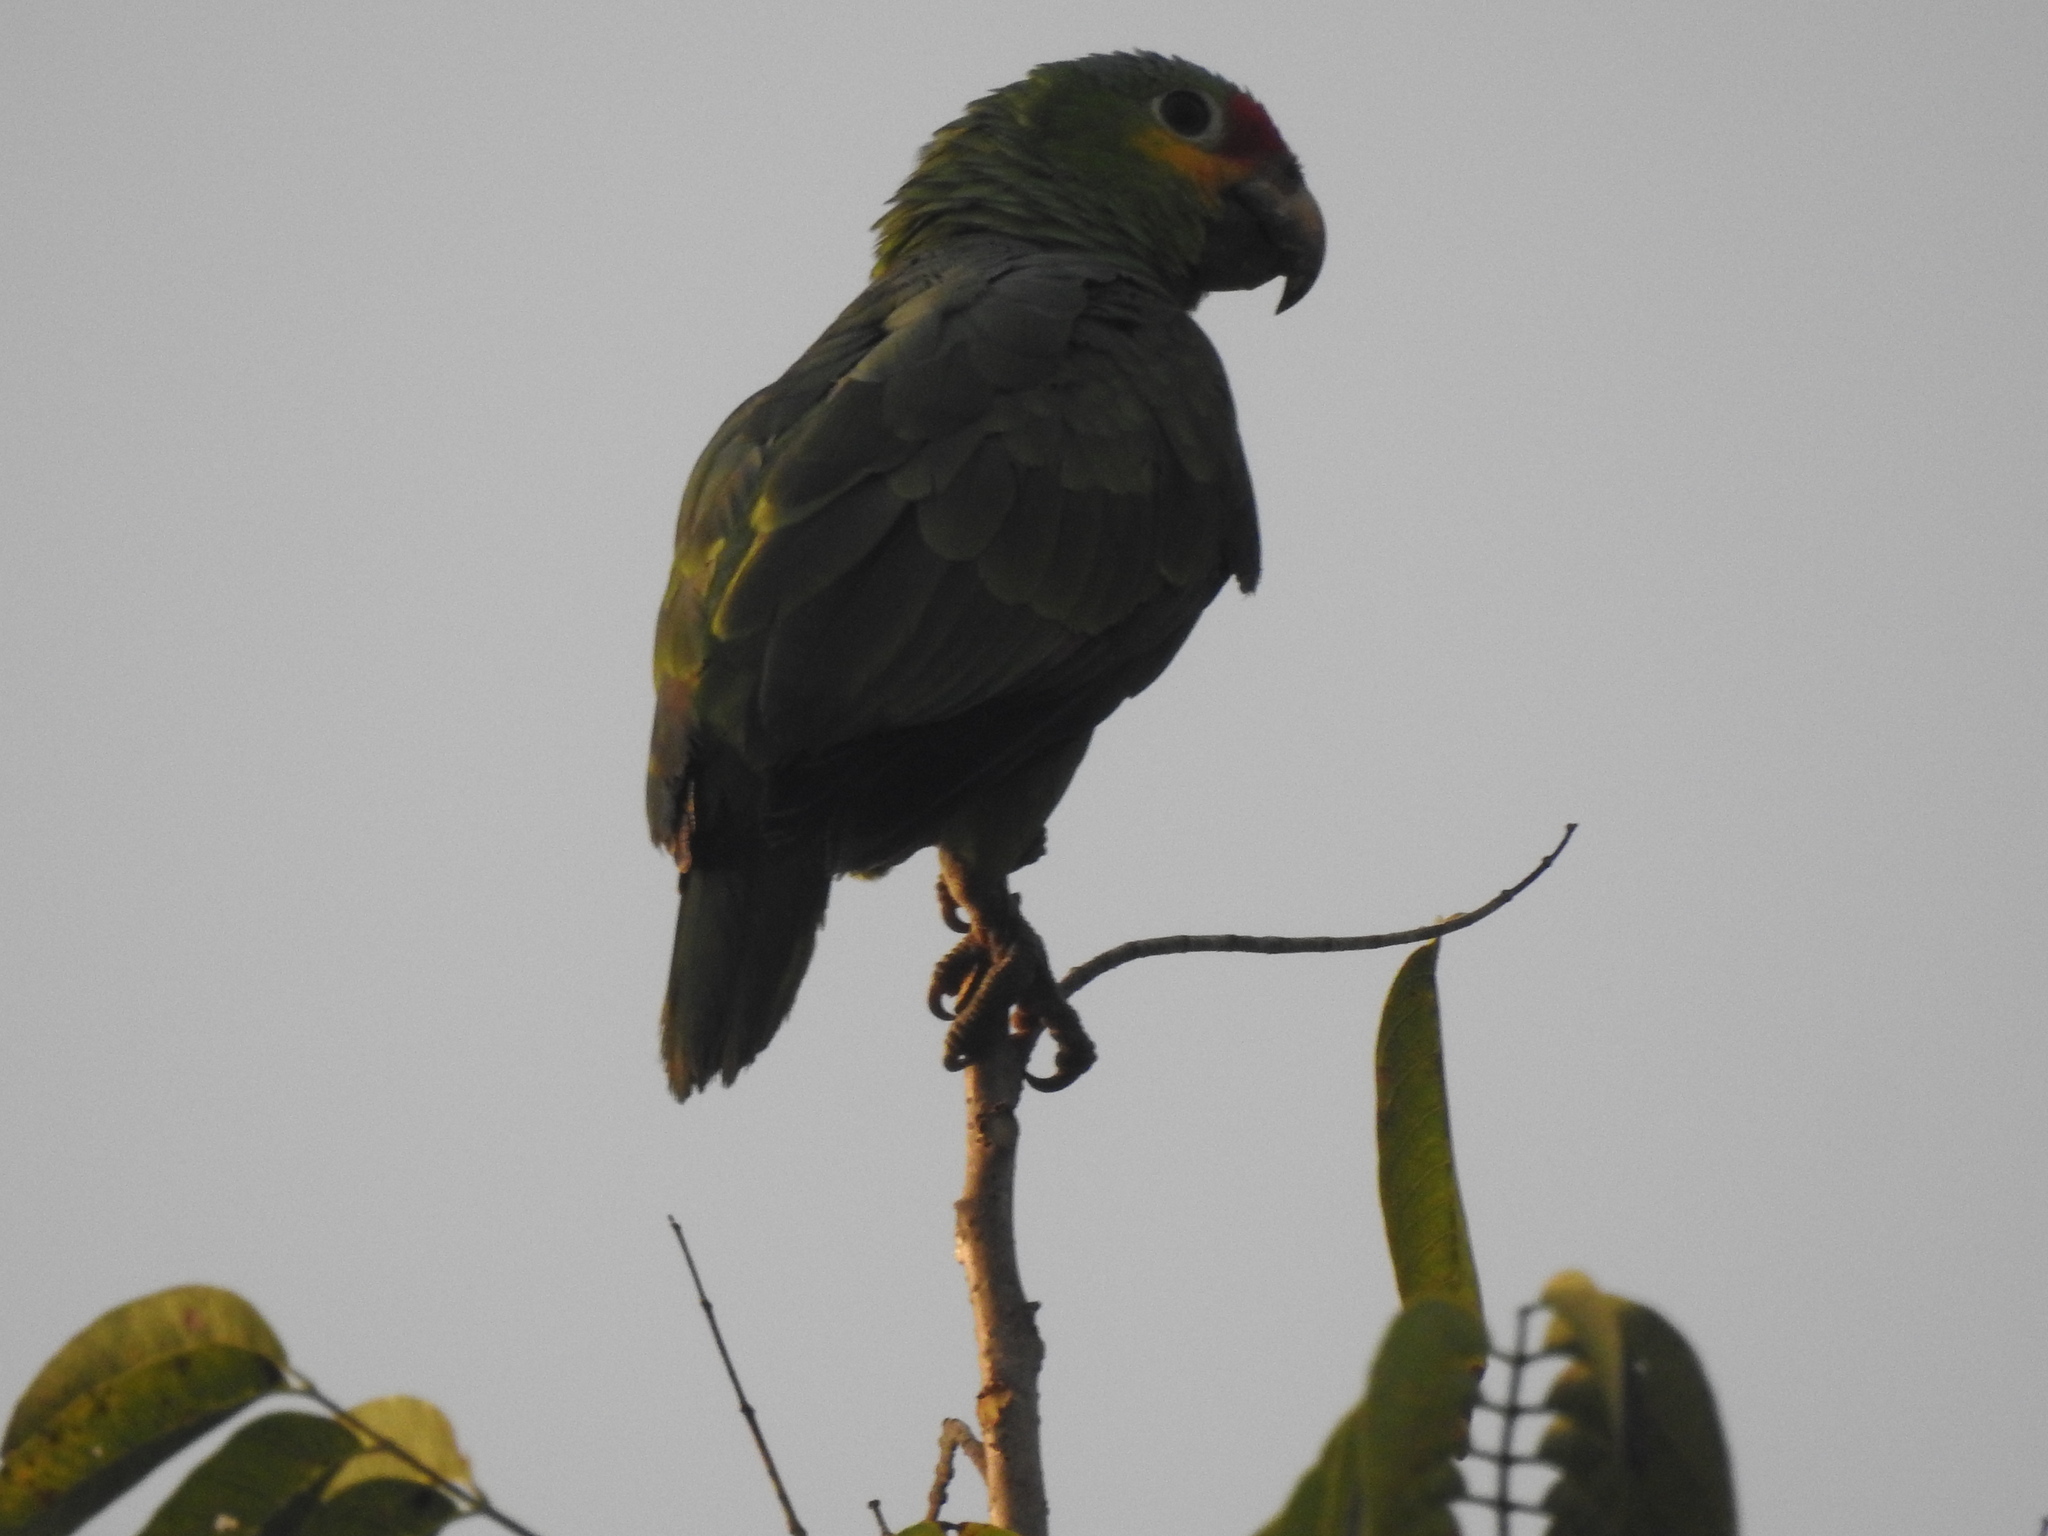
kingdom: Animalia
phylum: Chordata
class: Aves
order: Psittaciformes
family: Psittacidae
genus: Amazona
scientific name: Amazona autumnalis
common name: Red-lored amazon
